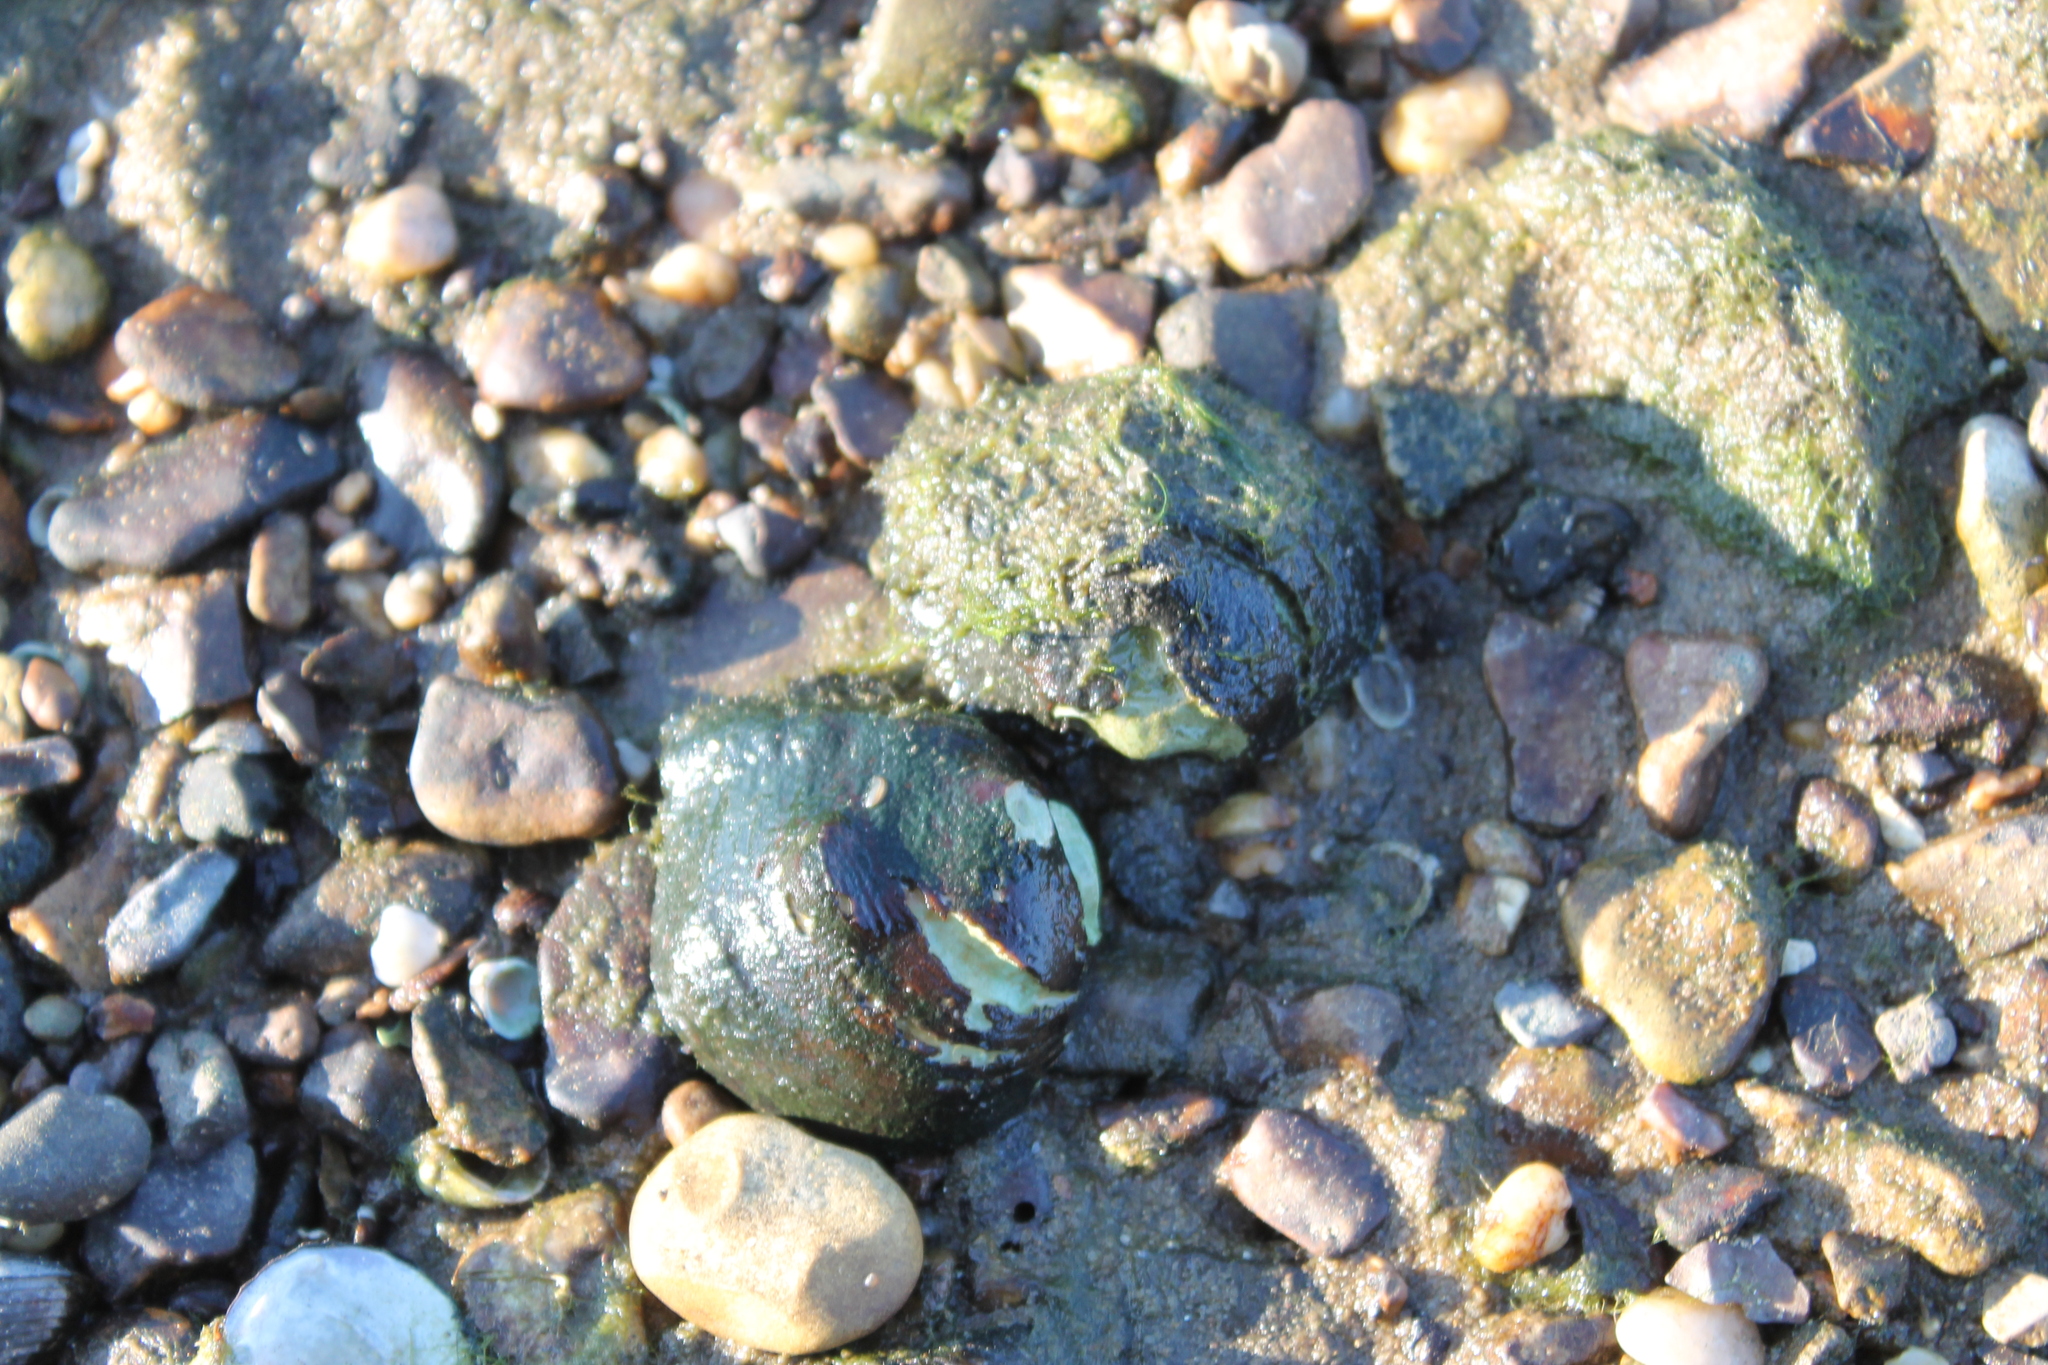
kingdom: Animalia
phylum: Mollusca
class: Bivalvia
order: Unionida
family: Unionidae
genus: Obliquaria
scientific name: Obliquaria reflexa
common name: Threehorn wartyback
